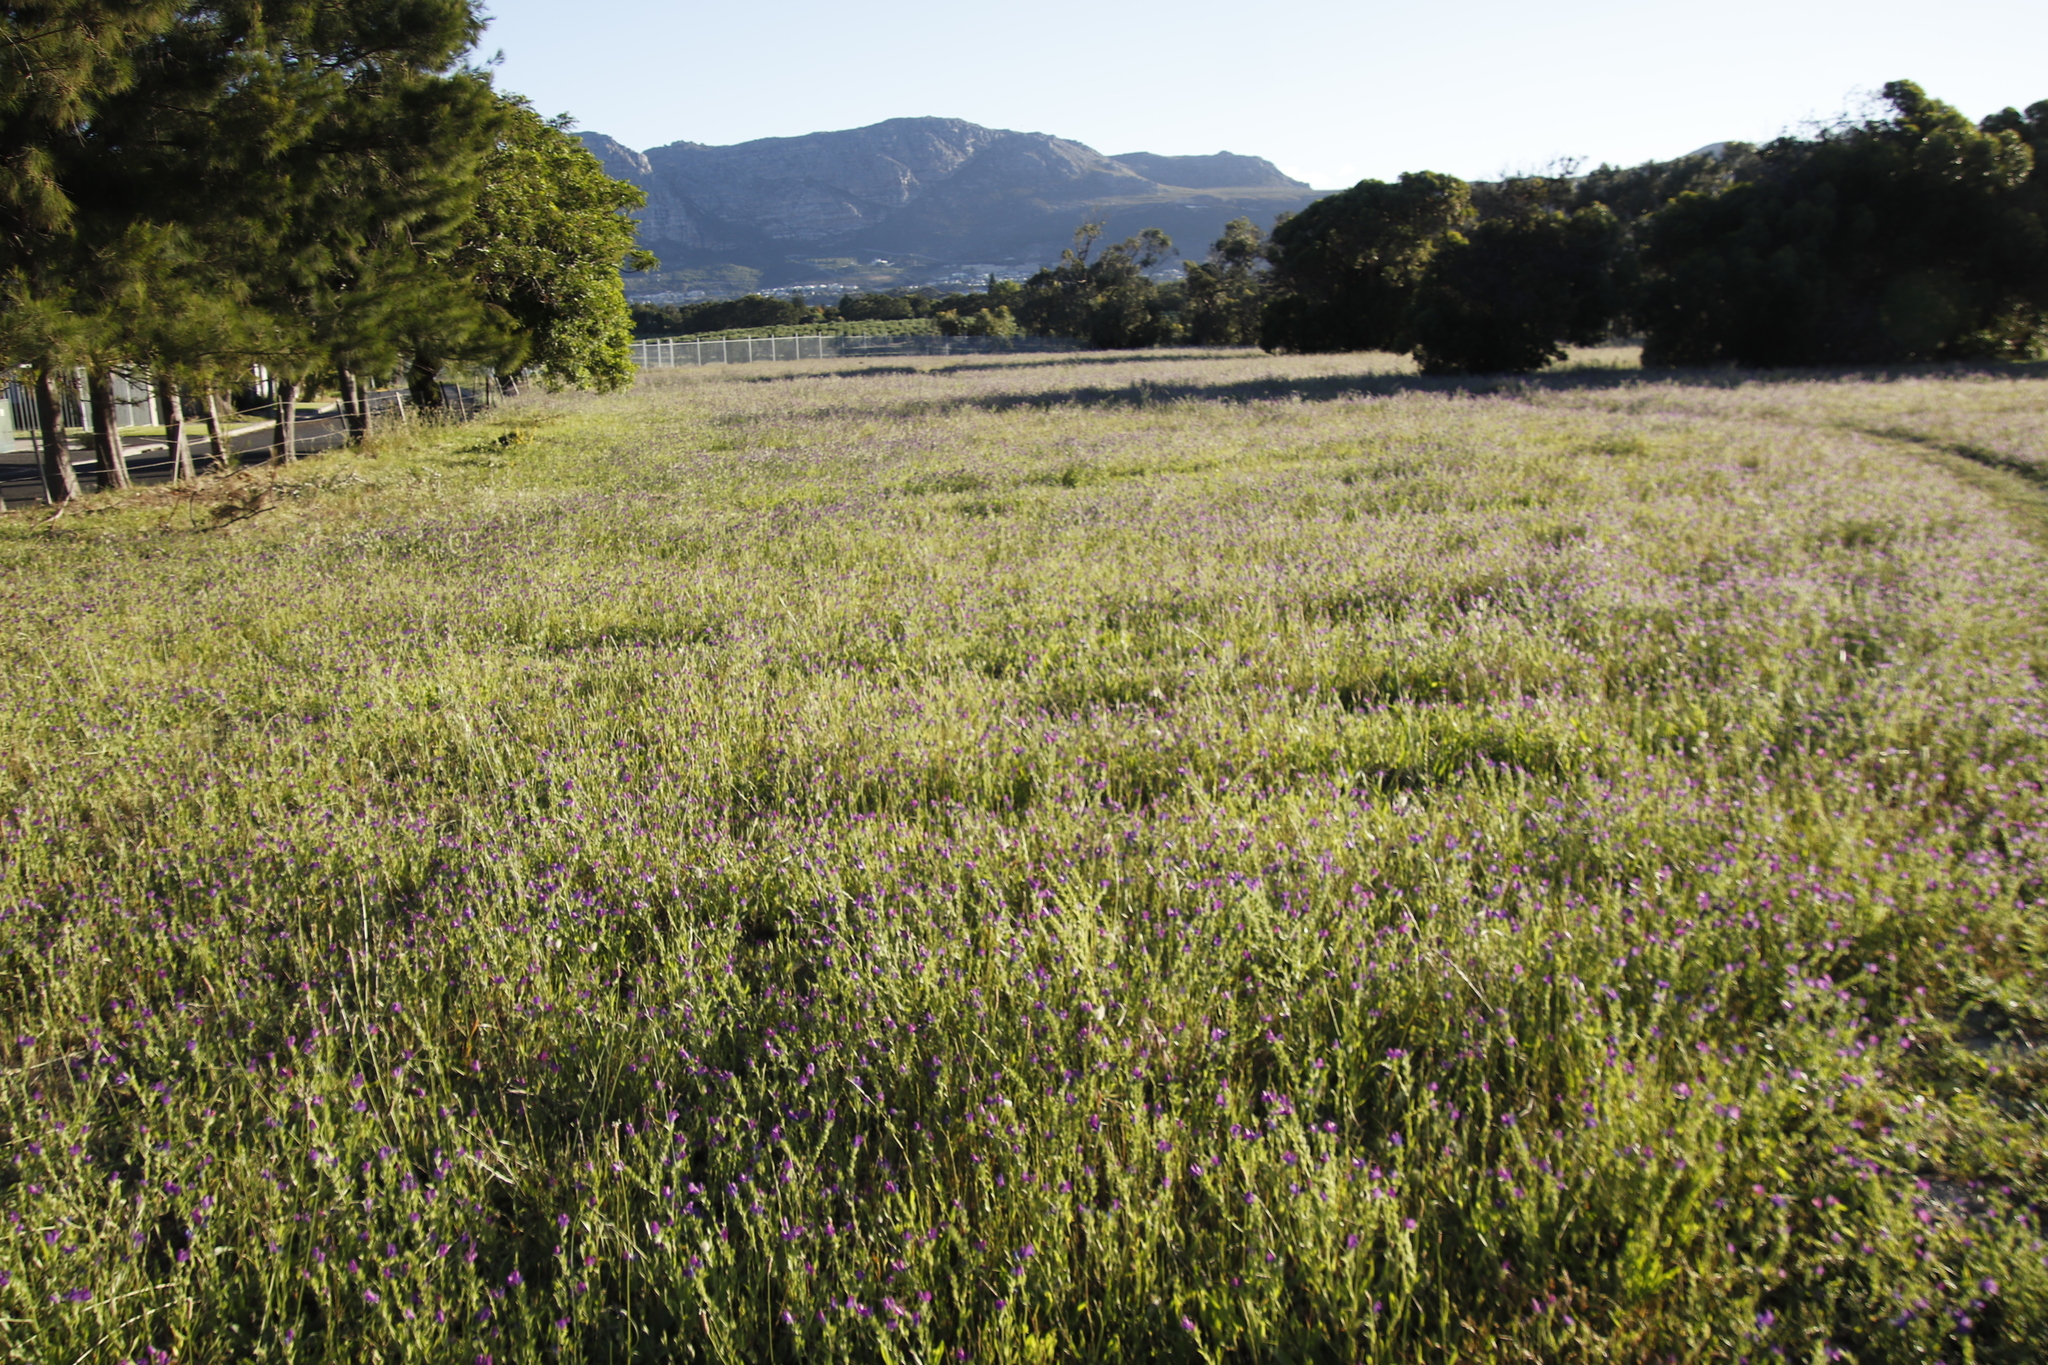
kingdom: Plantae
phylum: Tracheophyta
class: Magnoliopsida
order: Boraginales
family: Boraginaceae
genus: Echium
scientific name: Echium plantagineum
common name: Purple viper's-bugloss
